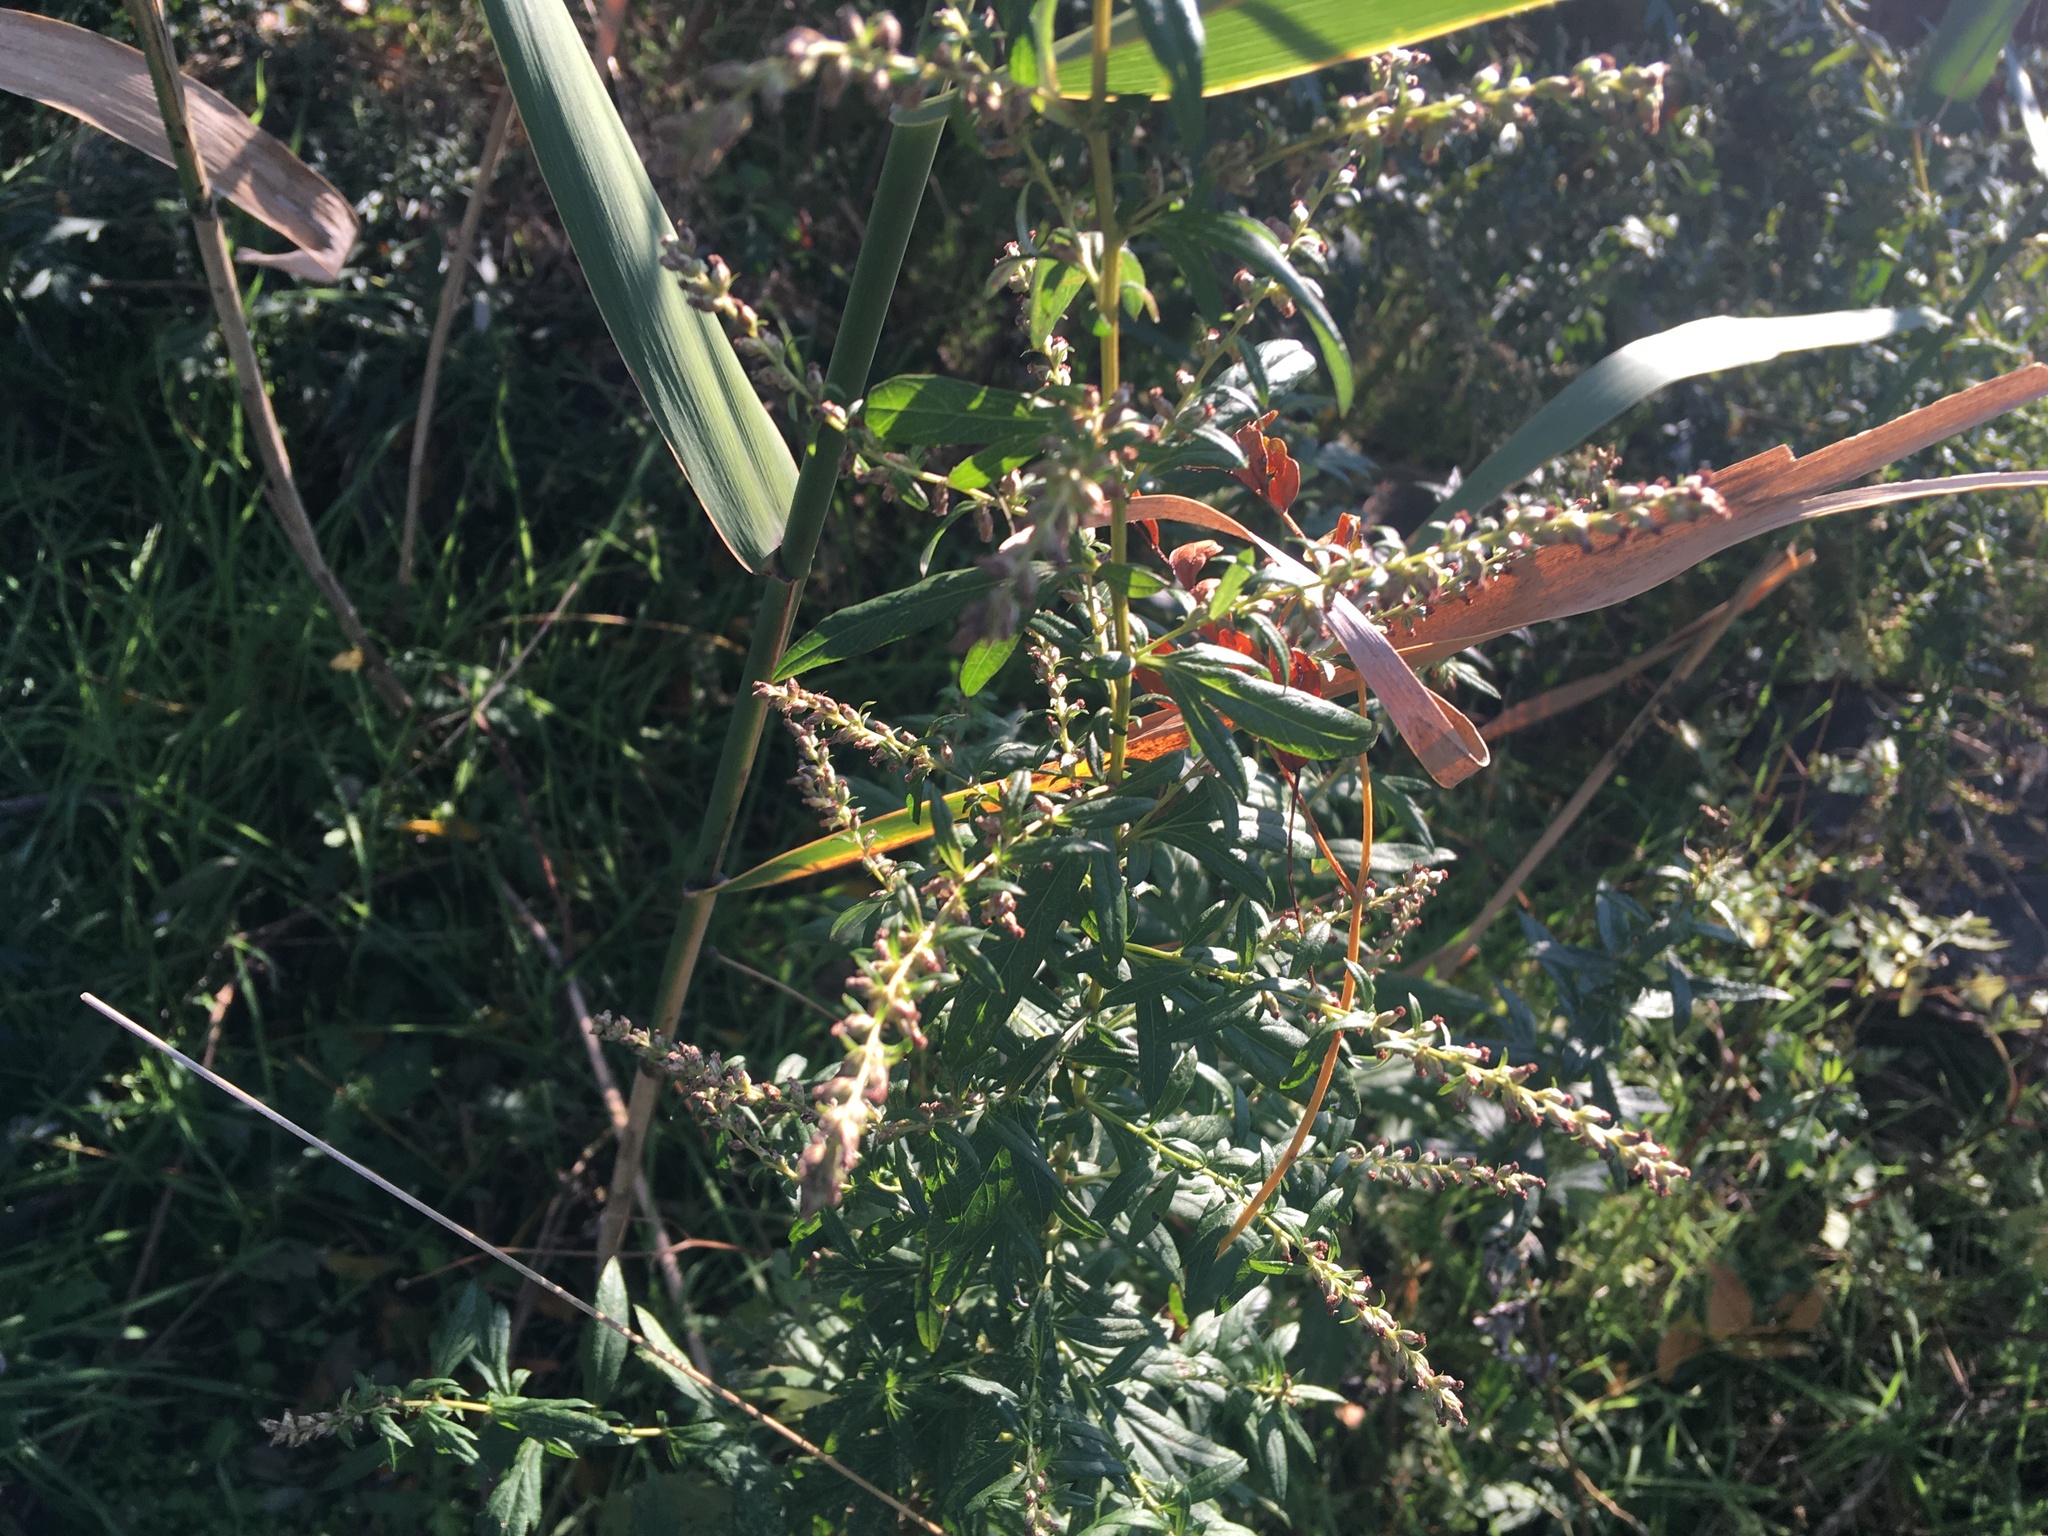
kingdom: Plantae
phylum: Tracheophyta
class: Magnoliopsida
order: Asterales
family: Asteraceae
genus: Artemisia
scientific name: Artemisia vulgaris
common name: Mugwort
